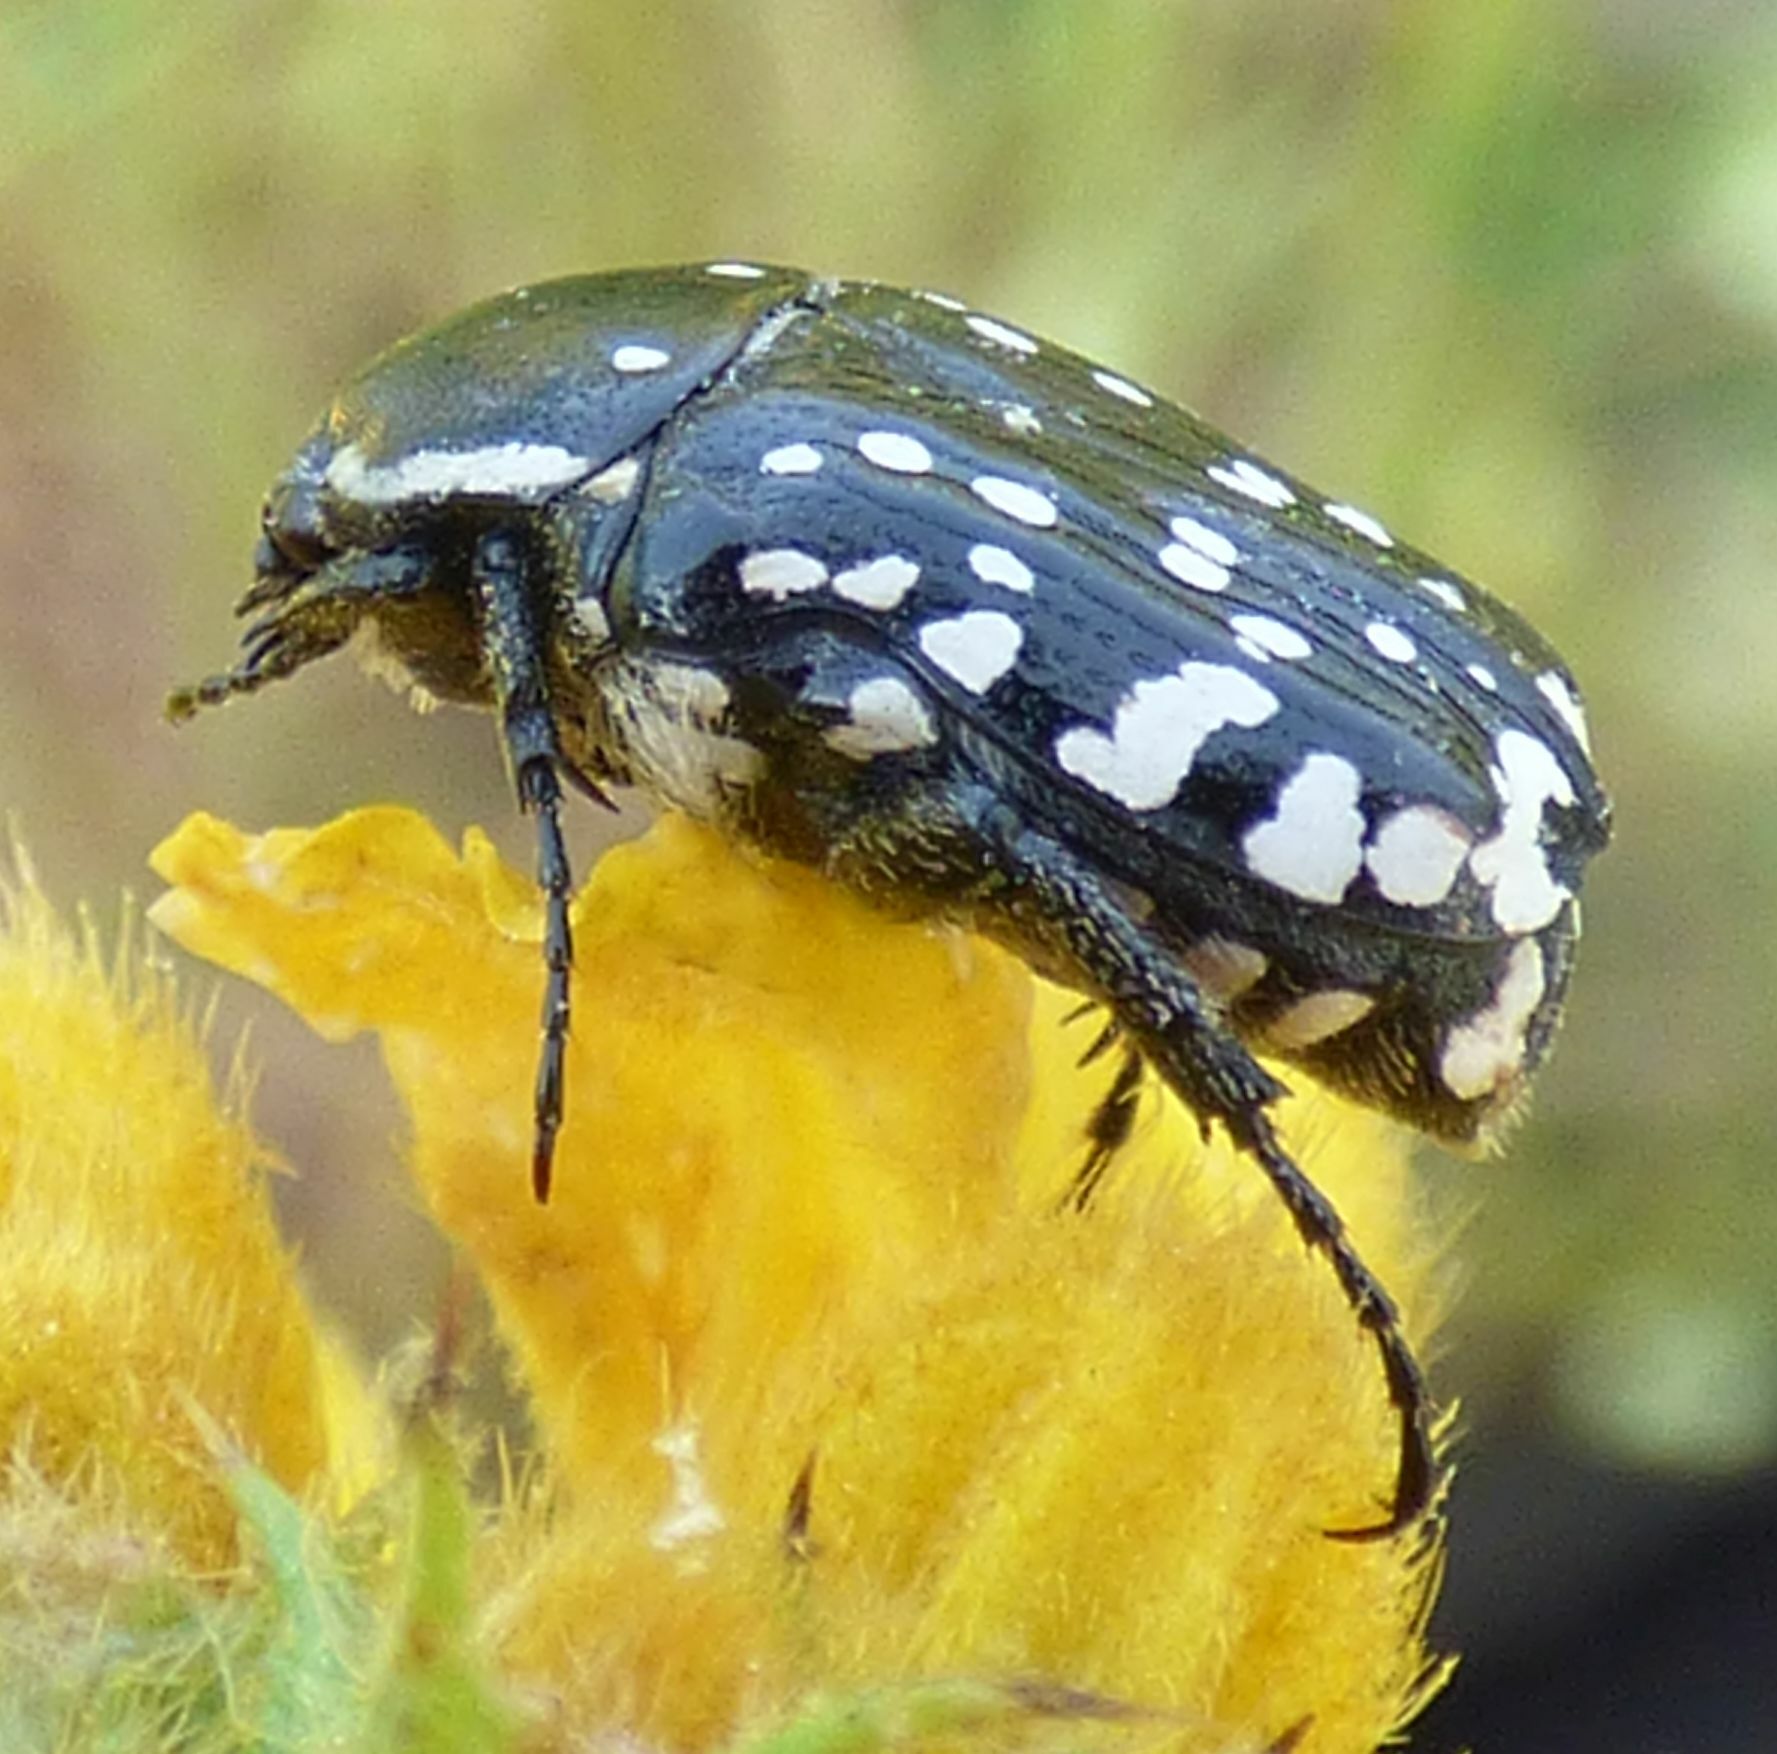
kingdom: Animalia
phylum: Arthropoda
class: Insecta
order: Coleoptera
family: Scarabaeidae
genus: Oxythyrea
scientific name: Oxythyrea cinctella
